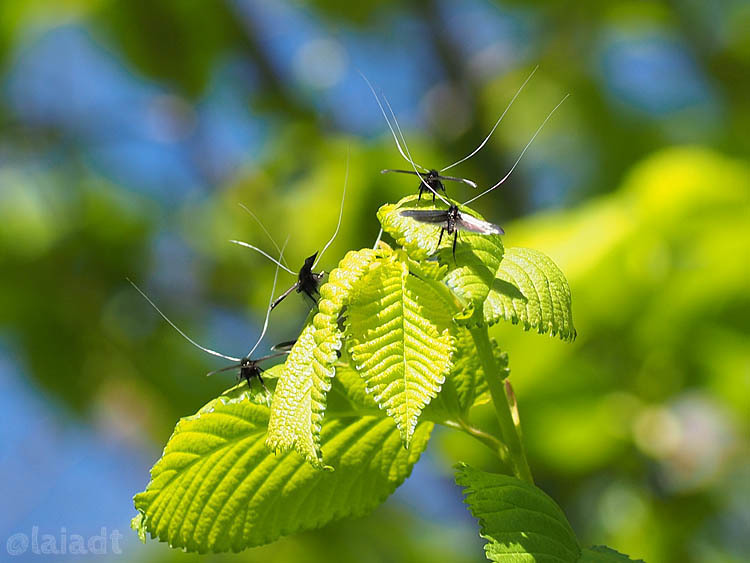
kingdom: Animalia
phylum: Arthropoda
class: Insecta
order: Lepidoptera
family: Adelidae
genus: Adela
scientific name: Adela viridella
